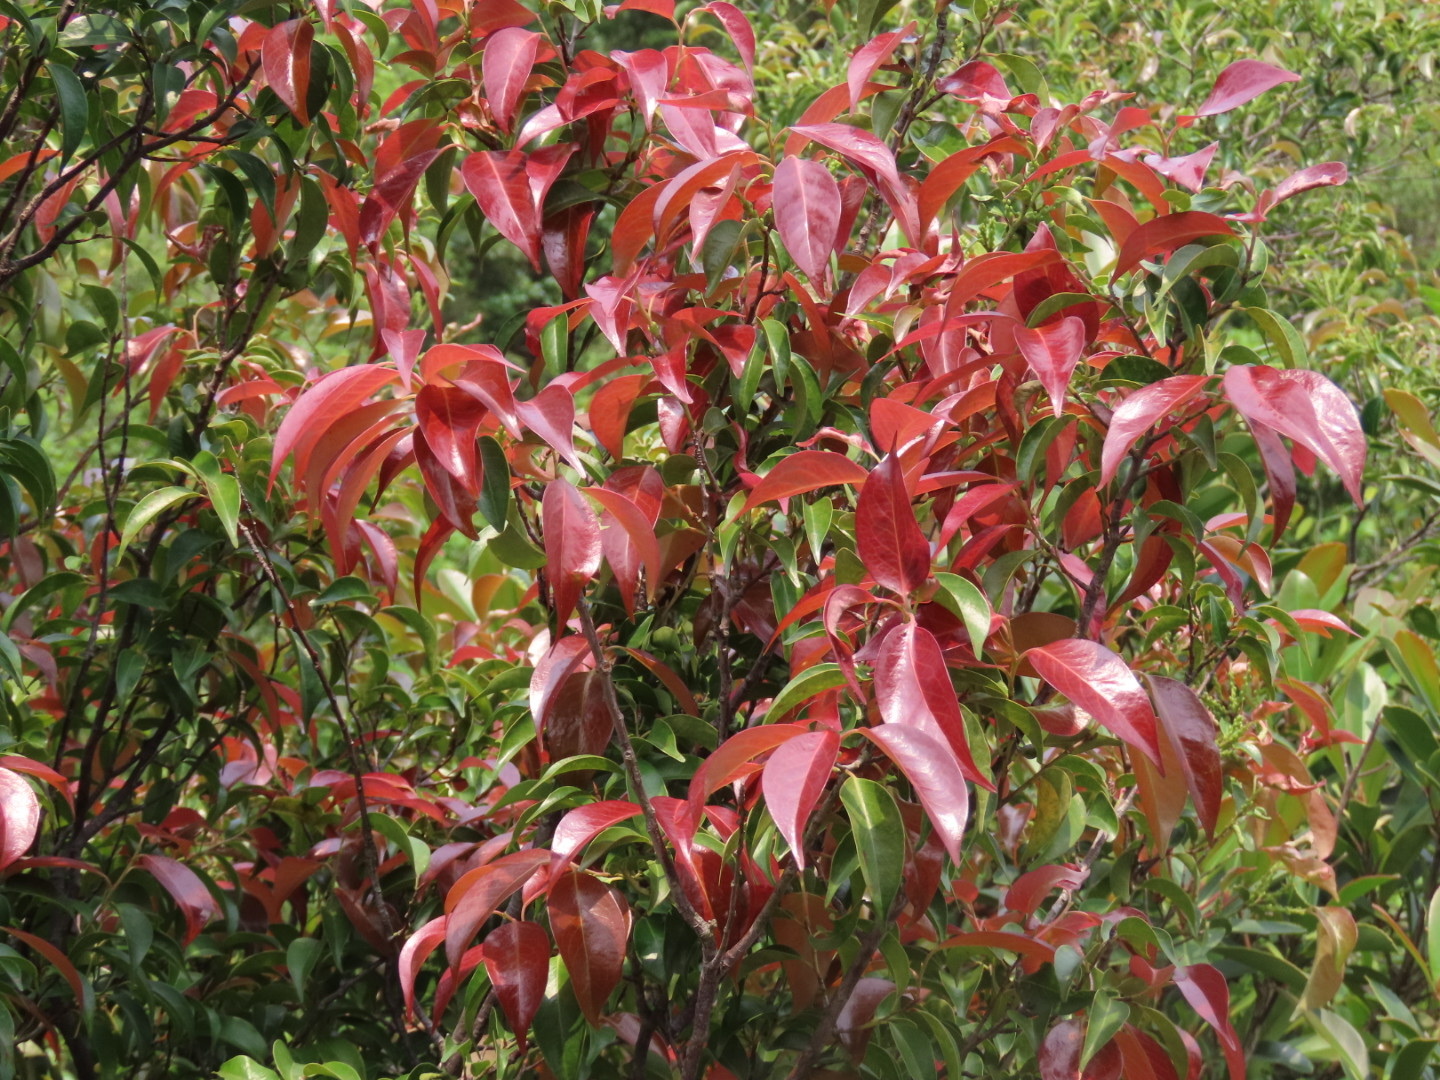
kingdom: Plantae
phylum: Tracheophyta
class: Magnoliopsida
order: Ericales
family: Pentaphylacaceae
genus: Pentaphylax
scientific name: Pentaphylax euryoides
